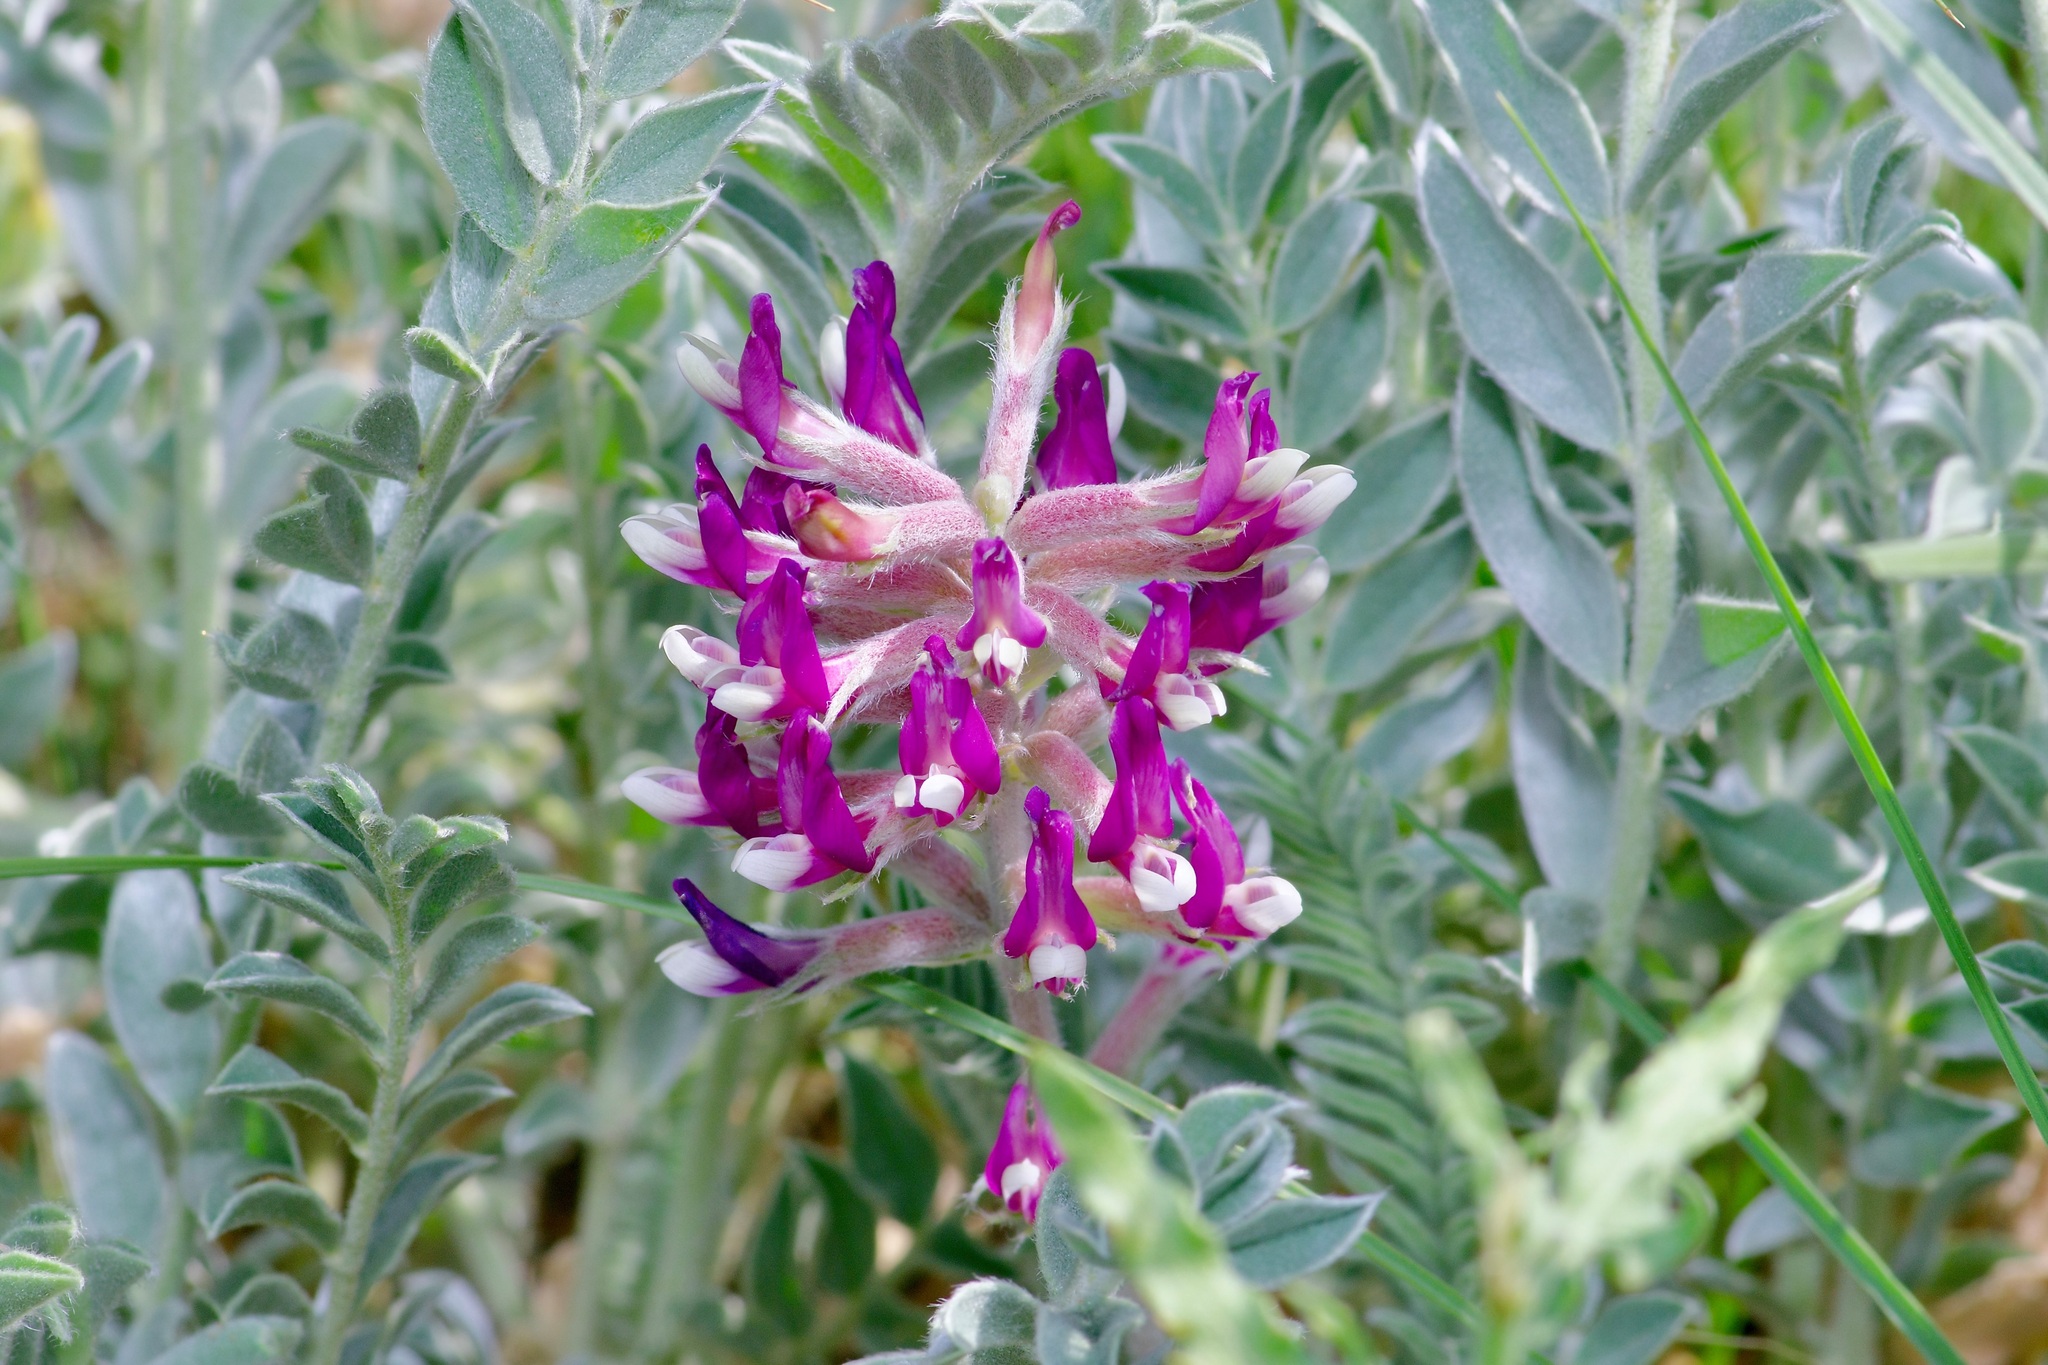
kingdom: Plantae
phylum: Tracheophyta
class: Magnoliopsida
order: Fabales
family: Fabaceae
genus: Astragalus
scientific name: Astragalus mollissimus
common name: Woolly locoweed
